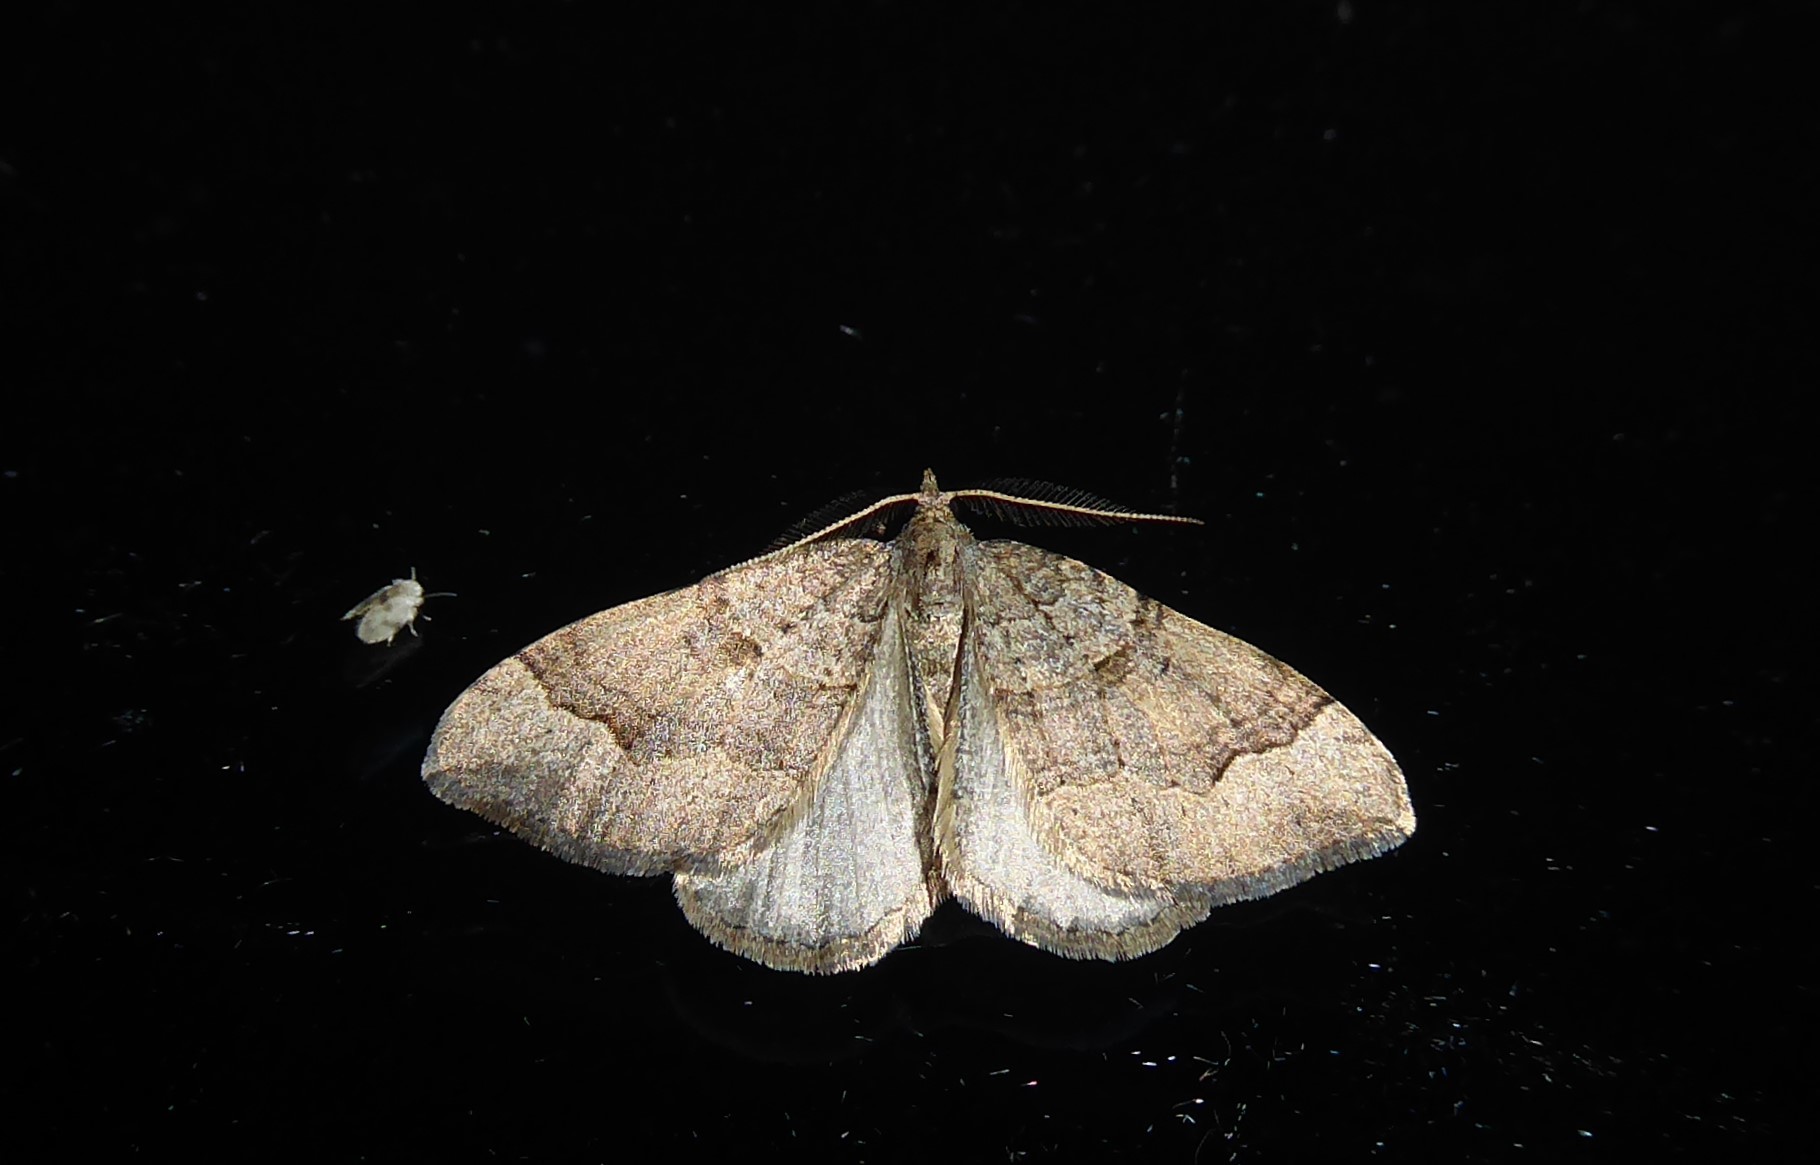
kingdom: Animalia
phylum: Arthropoda
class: Insecta
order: Lepidoptera
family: Geometridae
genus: Epyaxa
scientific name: Epyaxa rosearia
